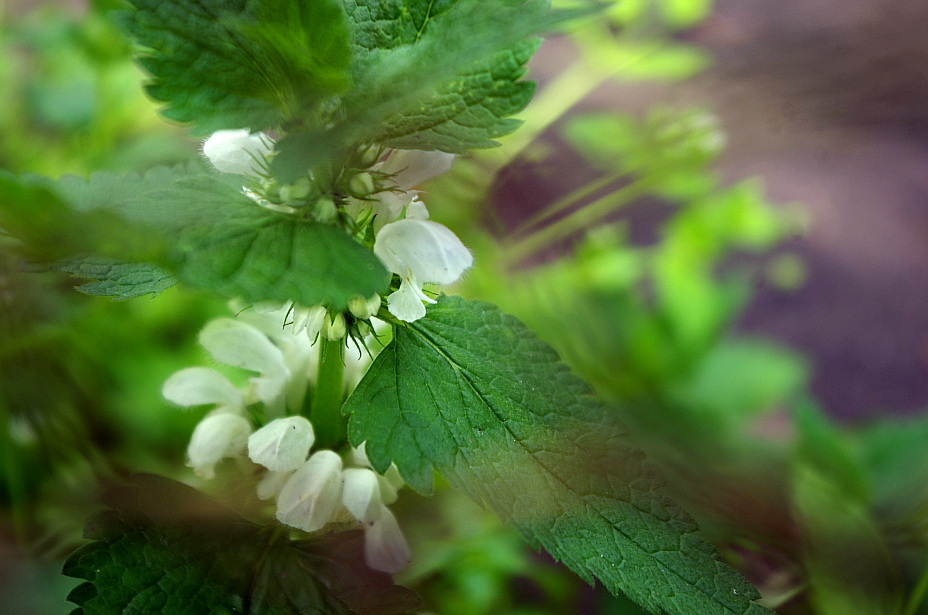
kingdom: Plantae
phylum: Tracheophyta
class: Magnoliopsida
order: Lamiales
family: Lamiaceae
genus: Lamium
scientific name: Lamium album
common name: White dead-nettle
